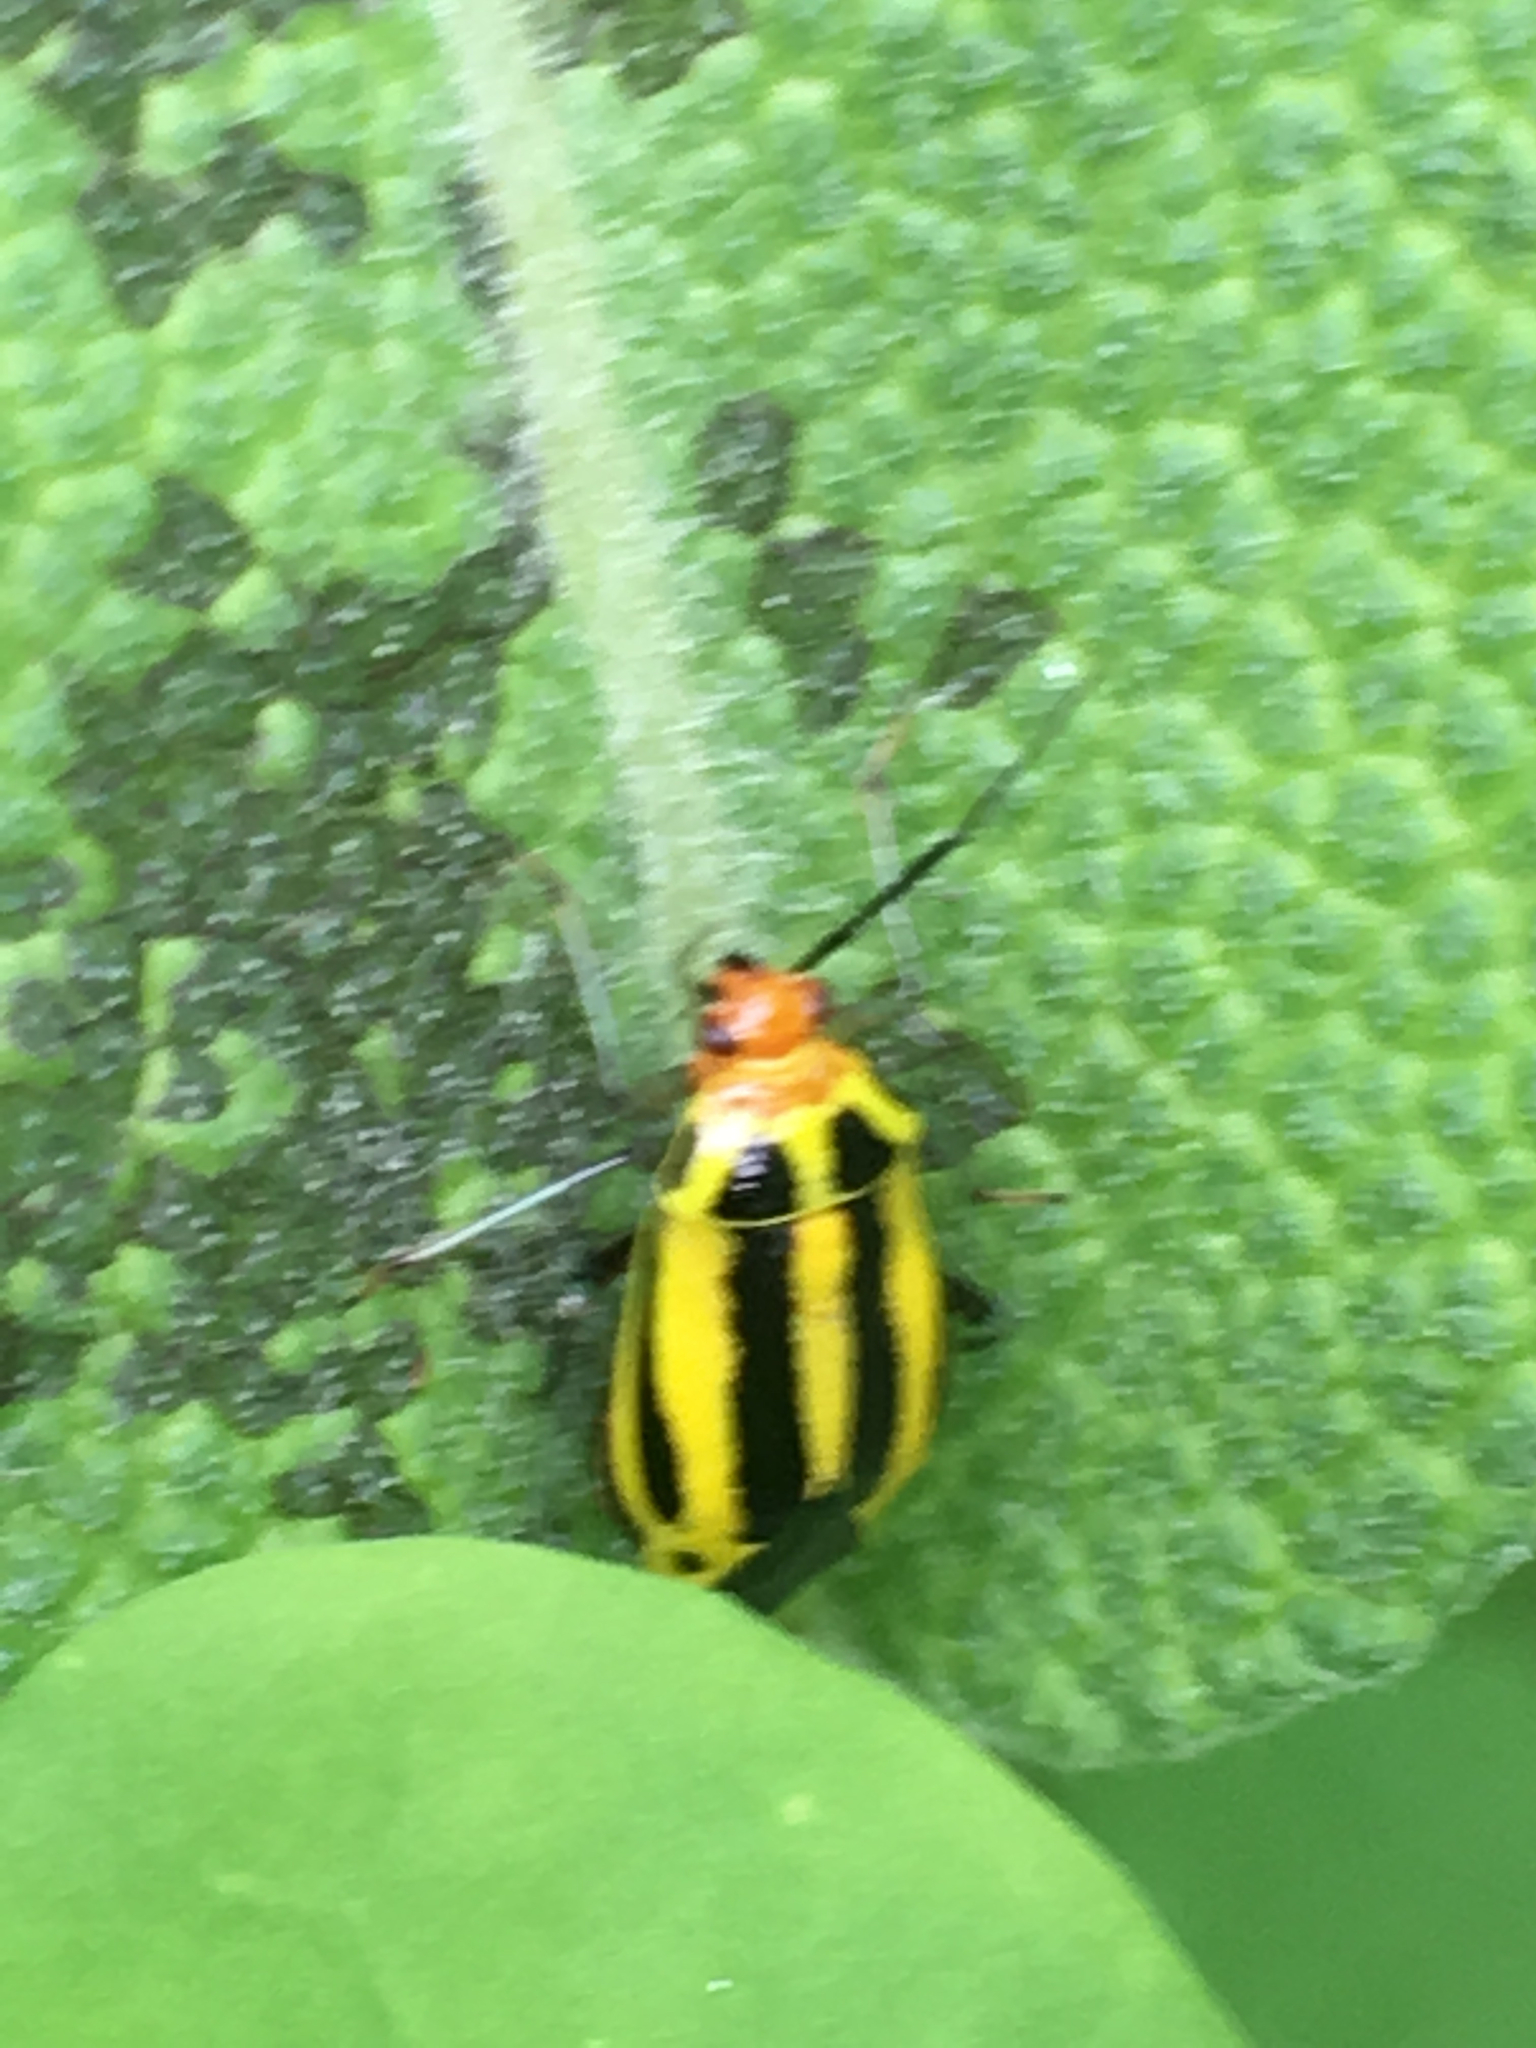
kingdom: Animalia
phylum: Arthropoda
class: Insecta
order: Hemiptera
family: Miridae
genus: Poecilocapsus
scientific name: Poecilocapsus lineatus
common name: Four-lined plant bug
